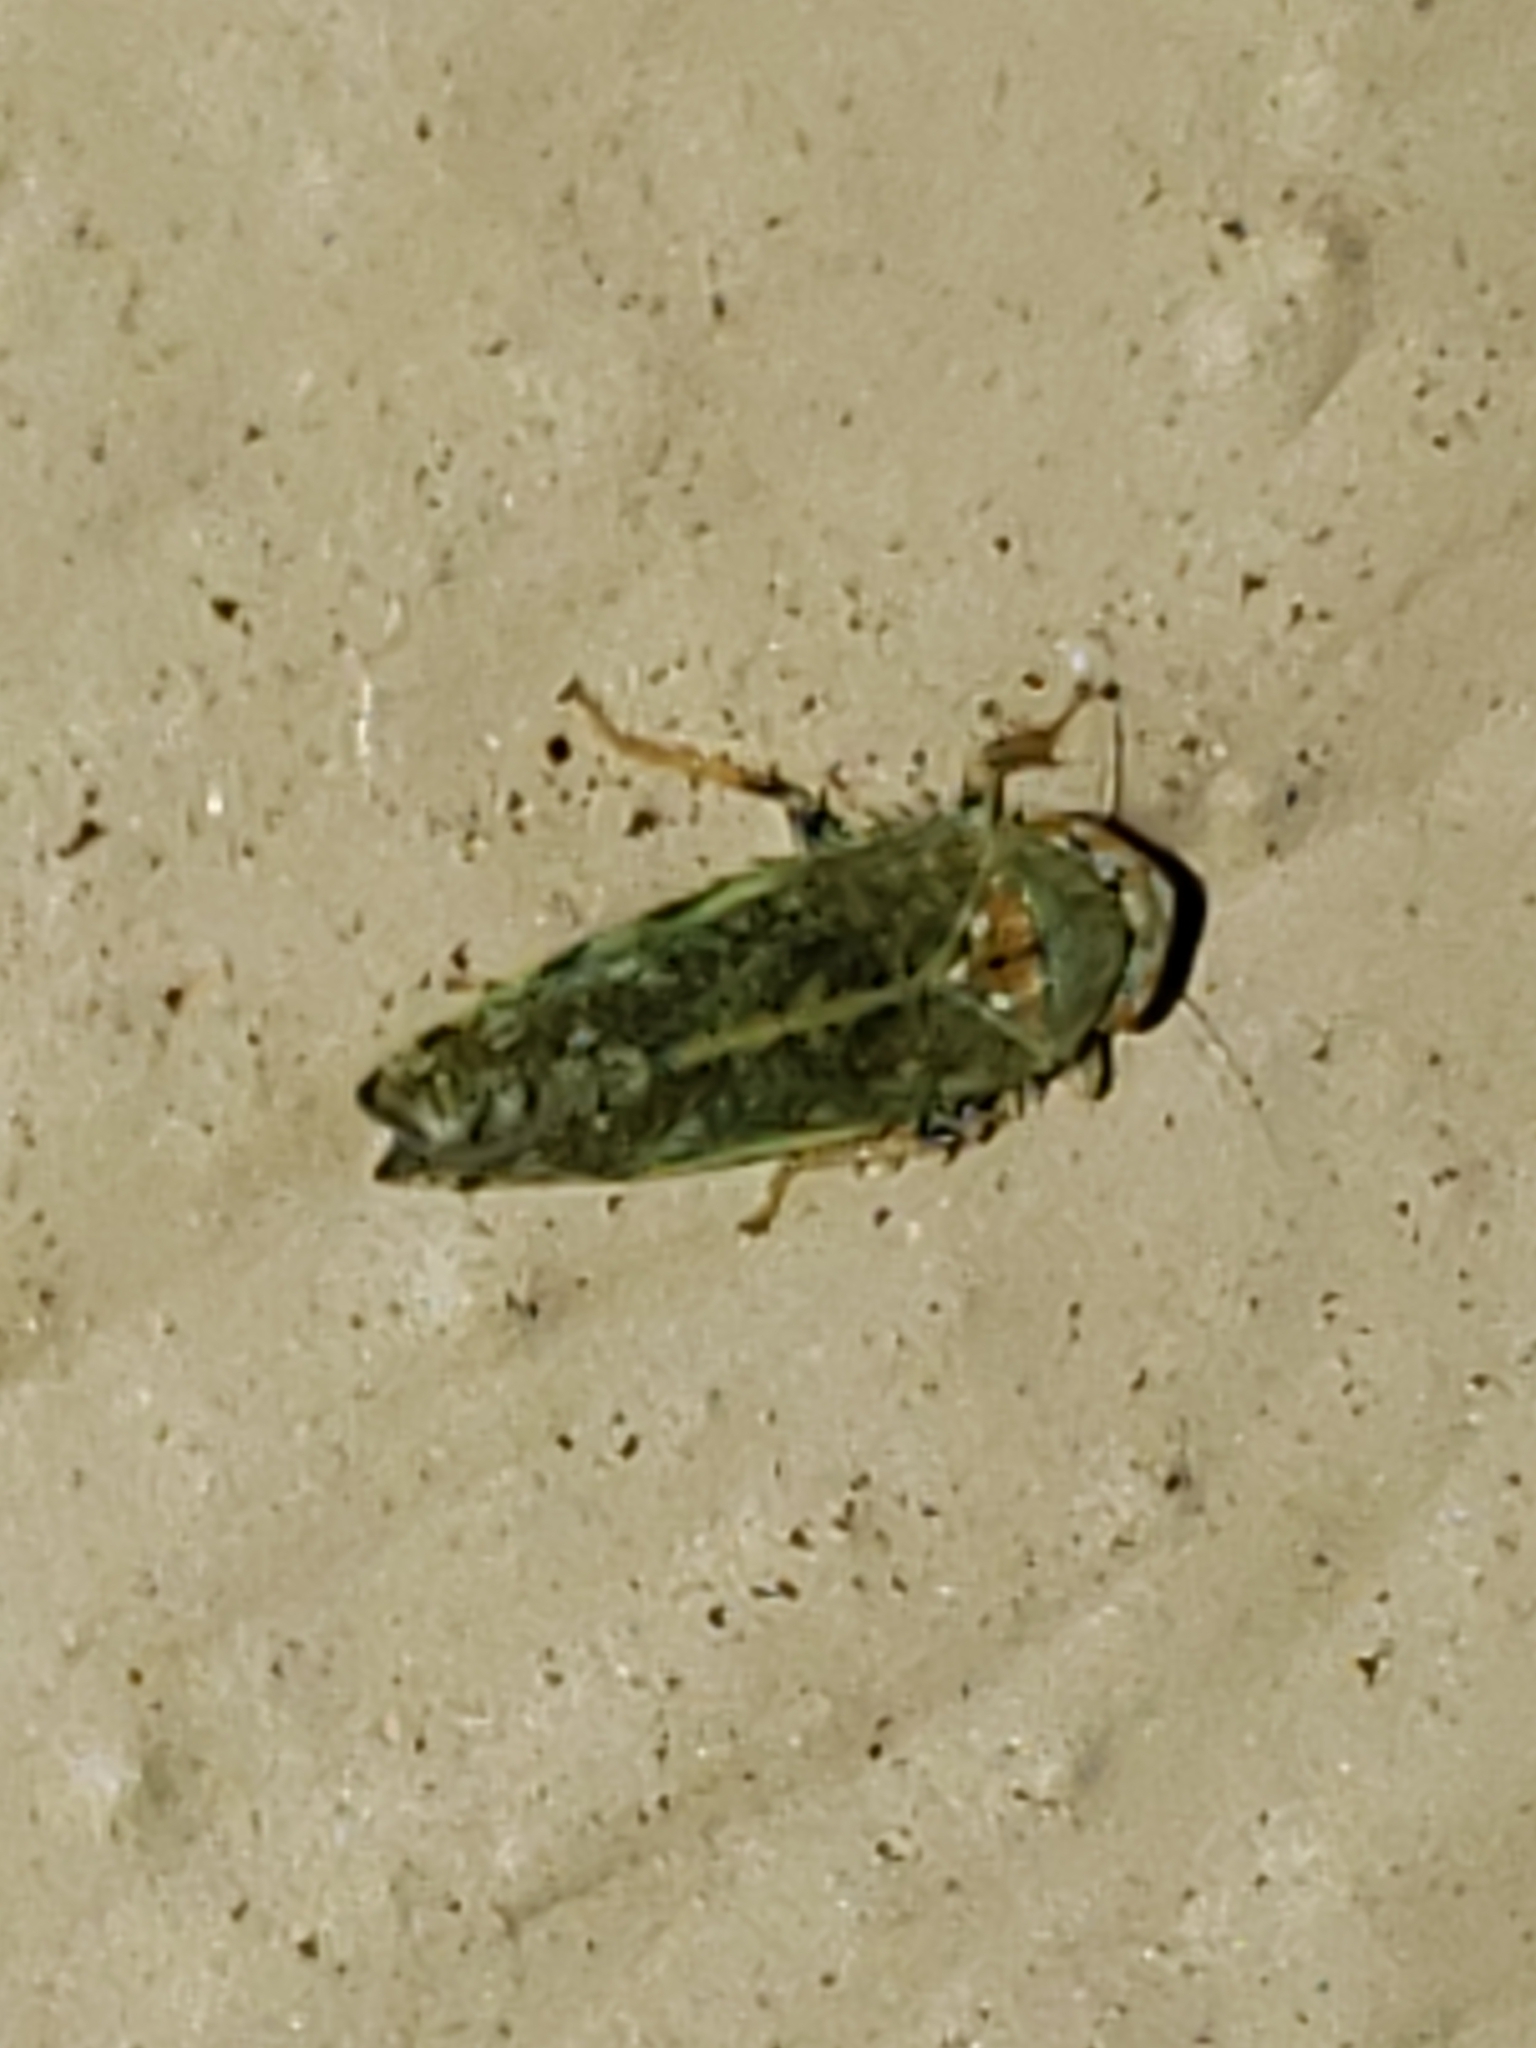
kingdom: Animalia
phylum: Arthropoda
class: Insecta
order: Hemiptera
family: Cicadellidae
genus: Orientus
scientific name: Orientus ishidae
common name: Japanese leafhopper
